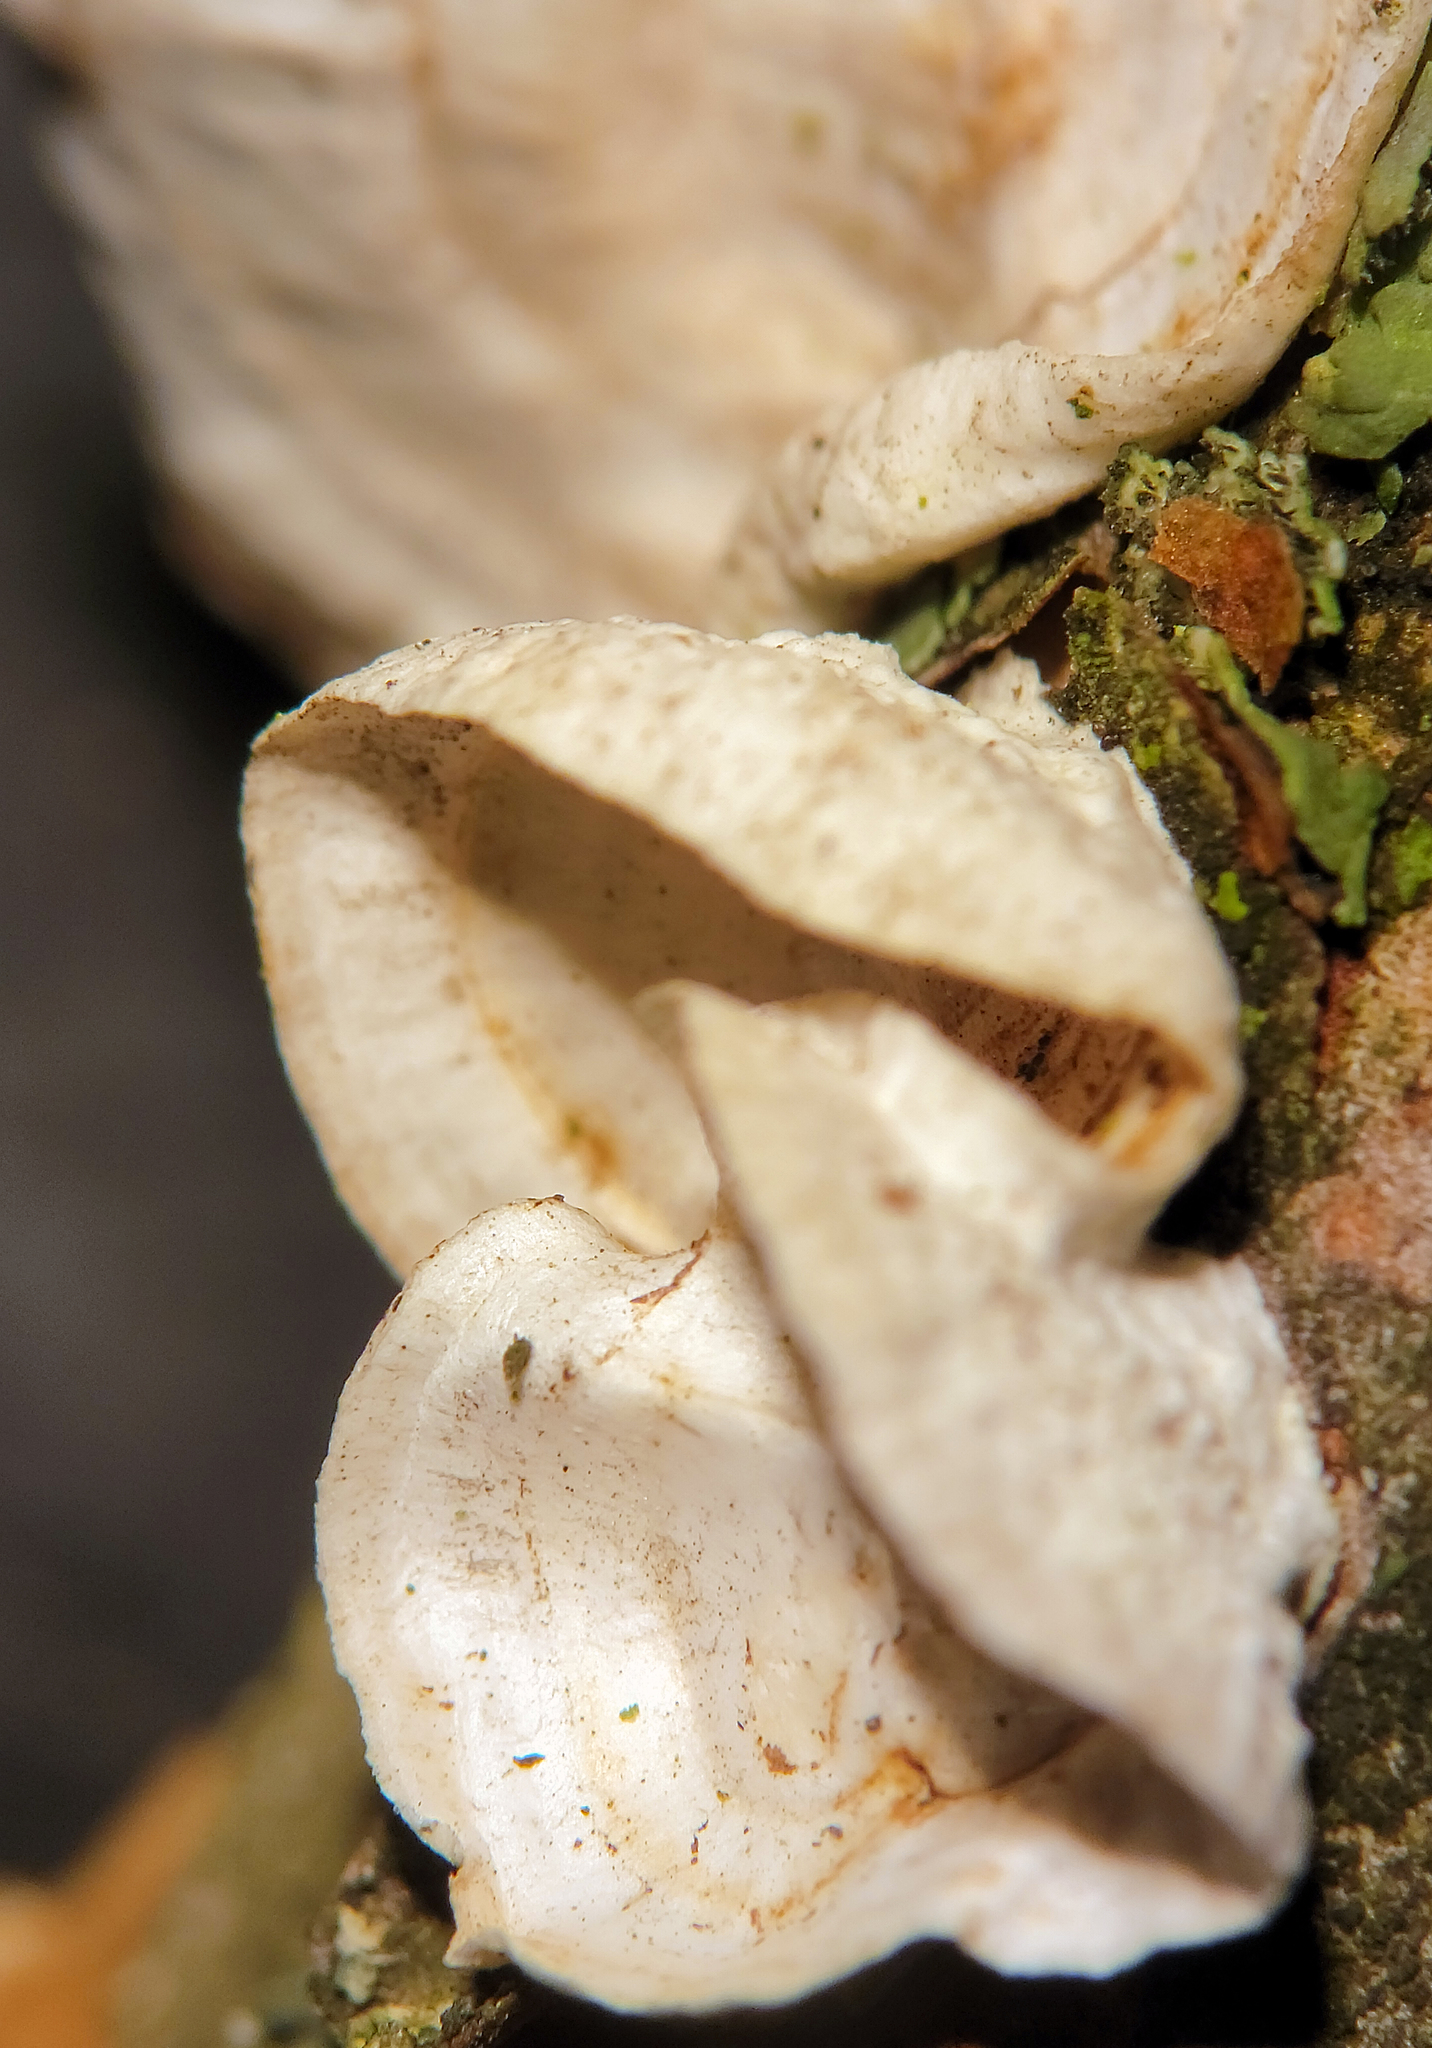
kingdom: Fungi
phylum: Basidiomycota
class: Agaricomycetes
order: Polyporales
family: Polyporaceae
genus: Poronidulus
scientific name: Poronidulus conchifer
